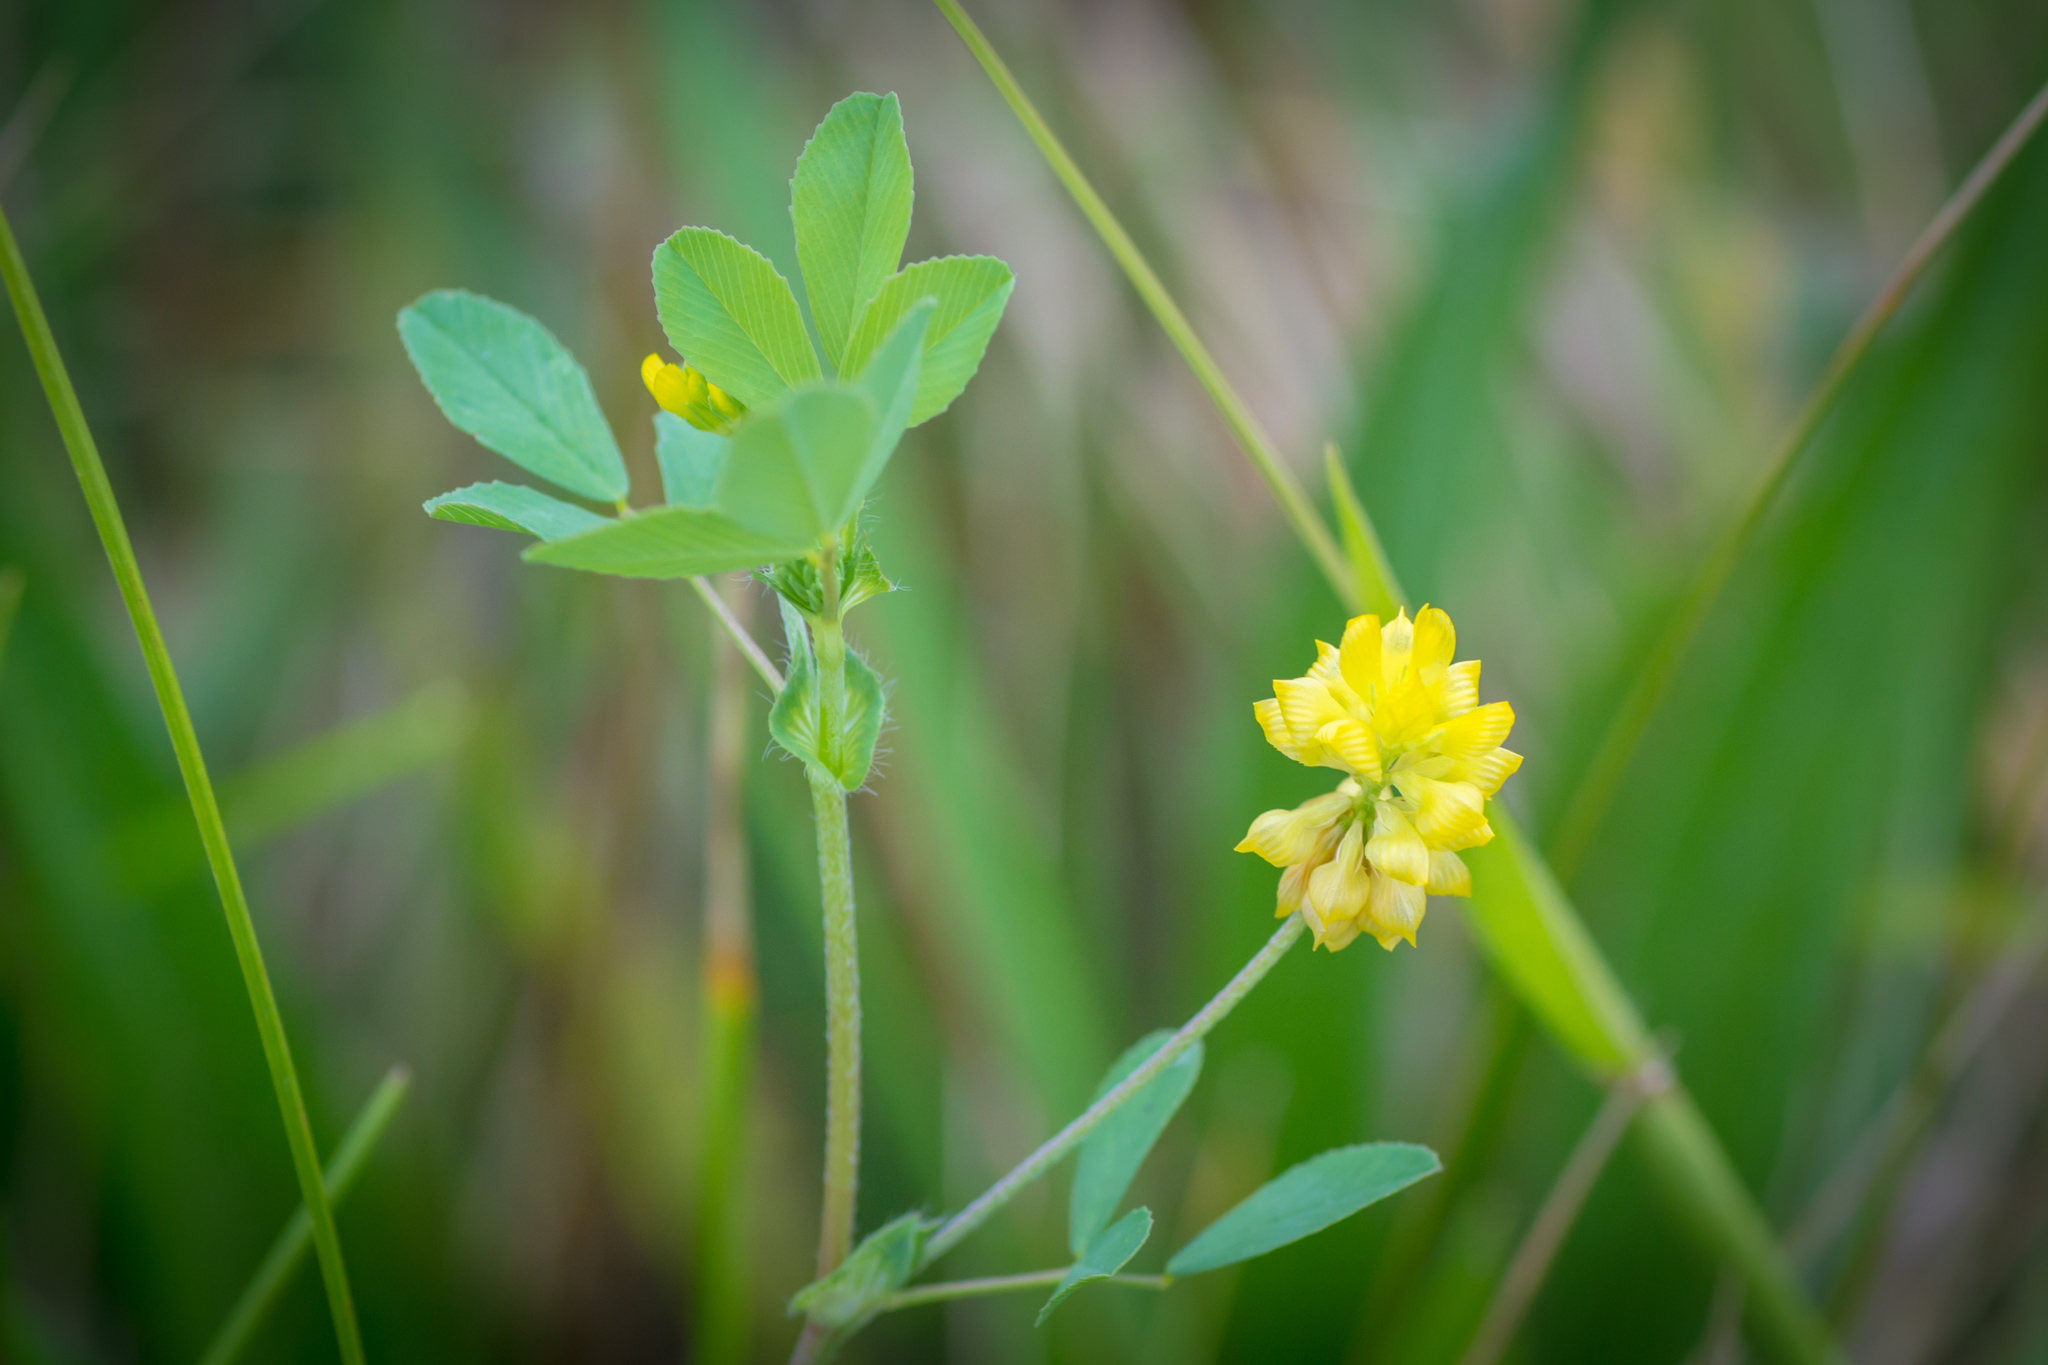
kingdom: Plantae
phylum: Tracheophyta
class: Magnoliopsida
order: Fabales
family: Fabaceae
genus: Trifolium
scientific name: Trifolium campestre
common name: Field clover
